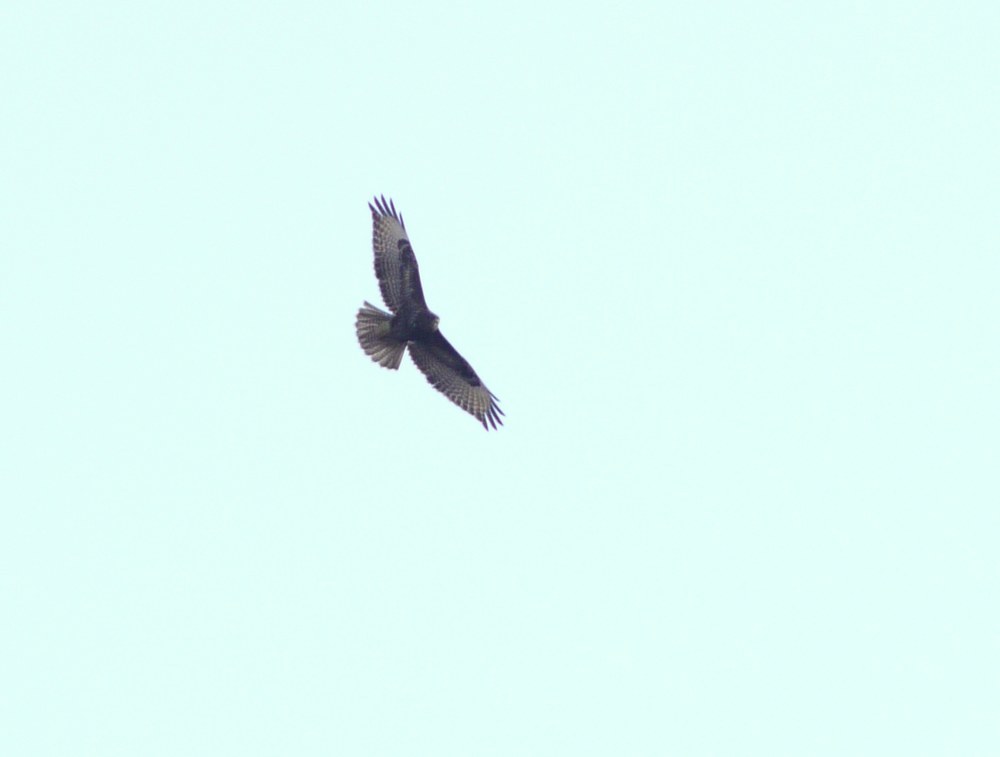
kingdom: Animalia
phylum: Chordata
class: Aves
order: Accipitriformes
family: Accipitridae
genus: Buteo
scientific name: Buteo buteo
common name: Common buzzard
